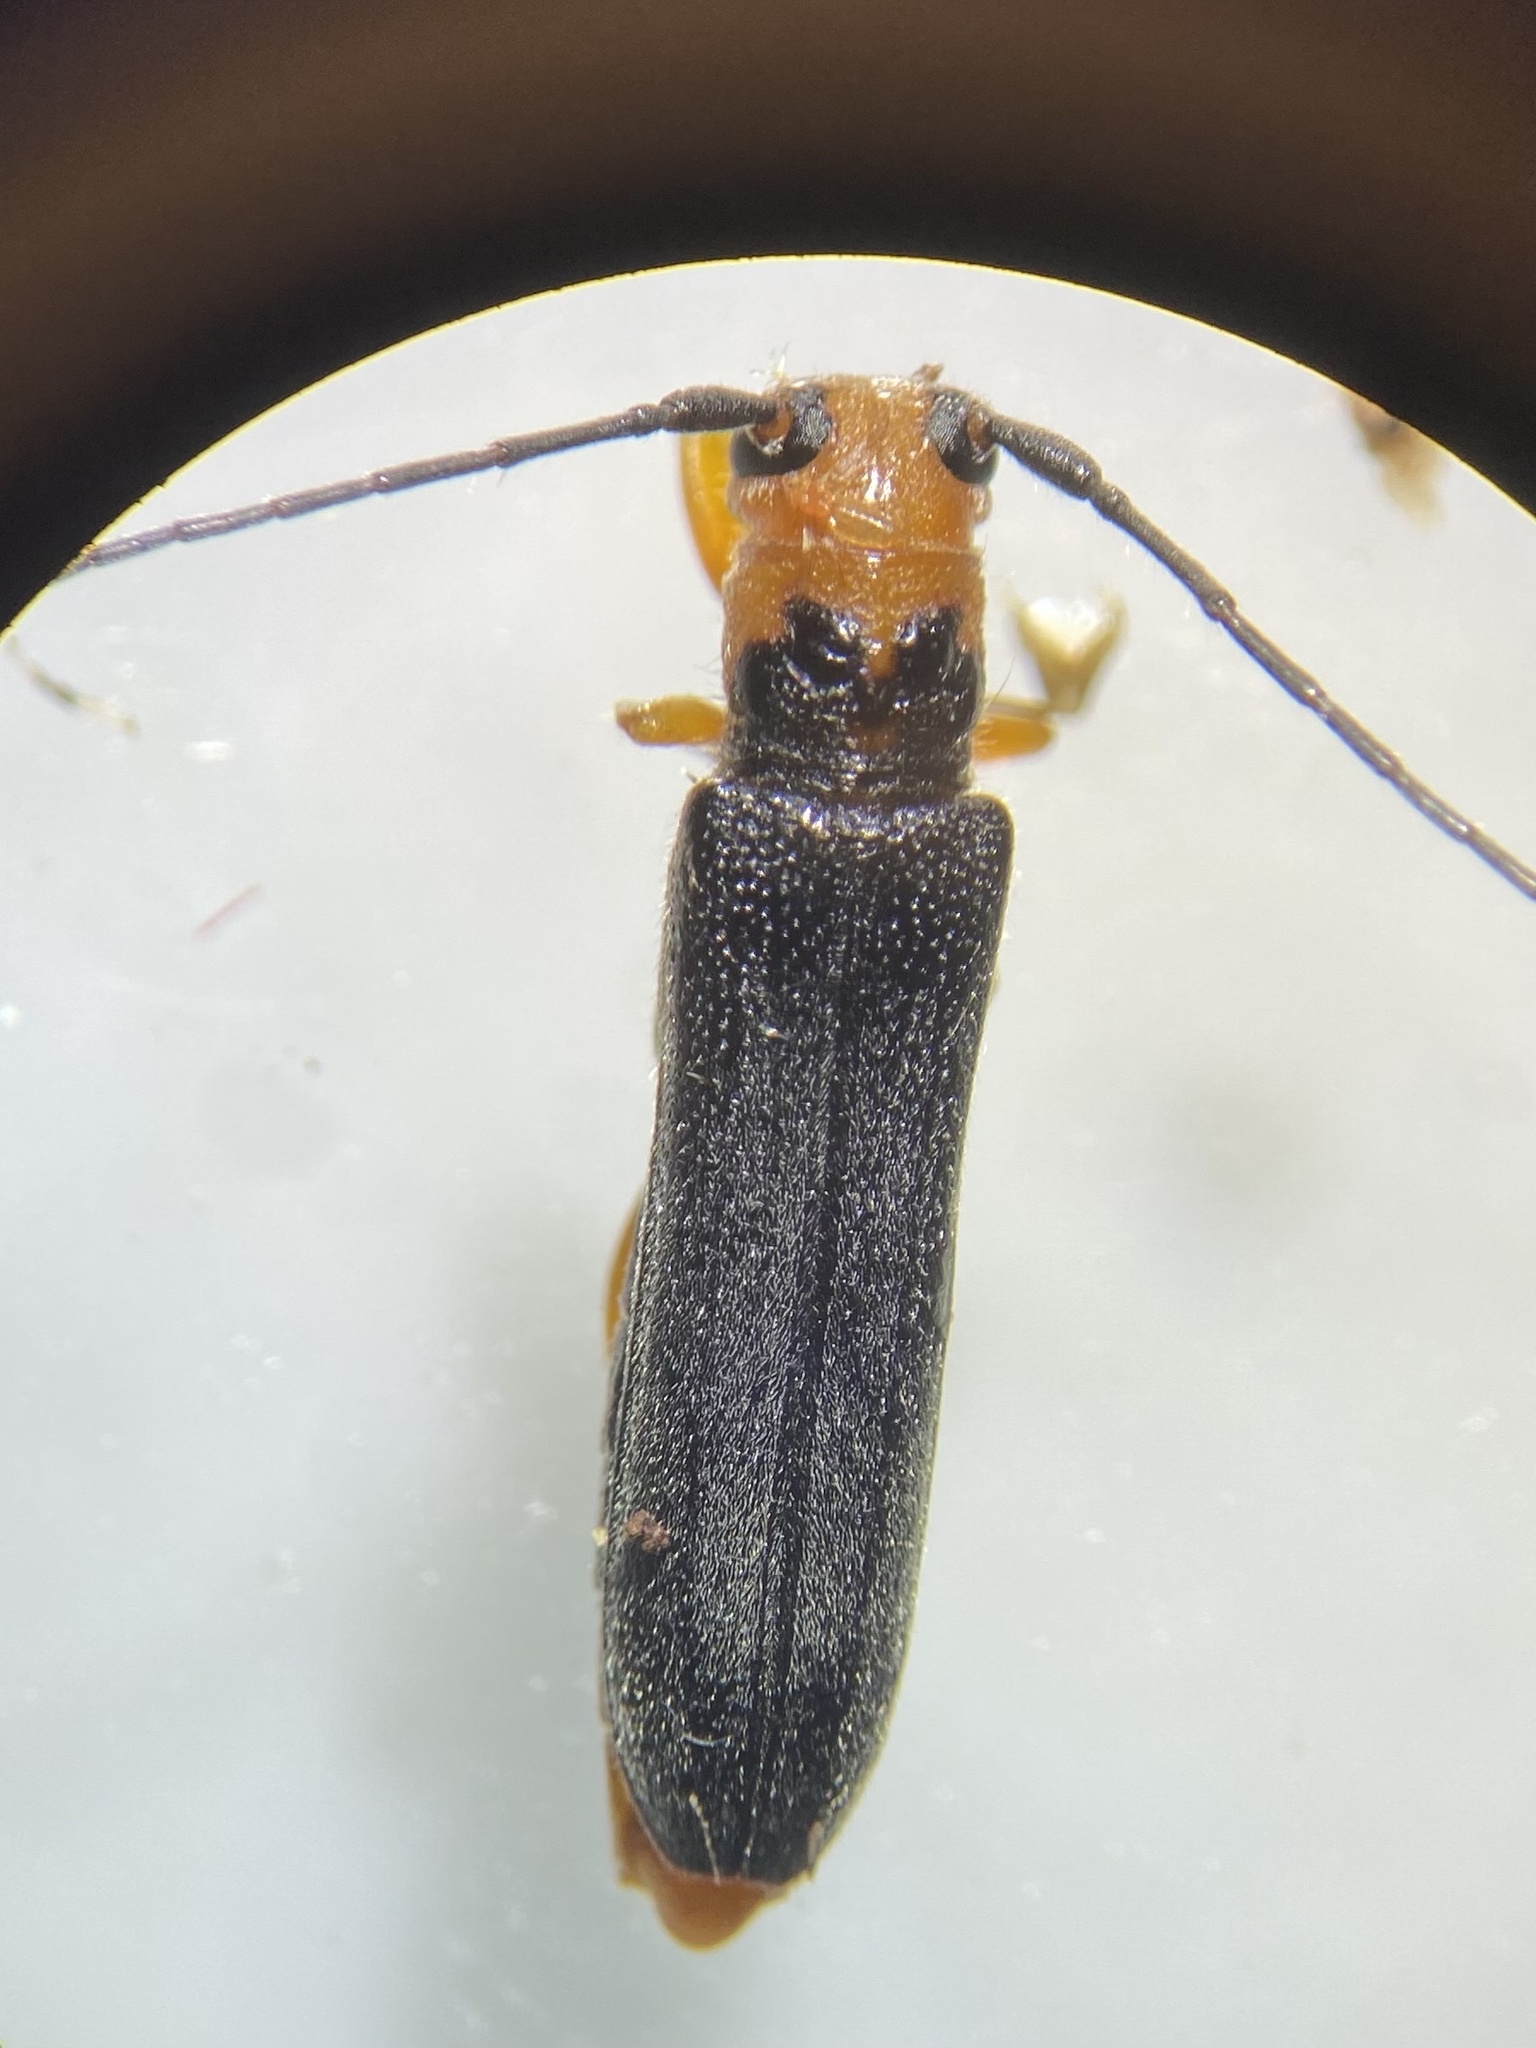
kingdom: Animalia
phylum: Arthropoda
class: Insecta
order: Coleoptera
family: Cerambycidae
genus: Oberea
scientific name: Oberea delongi
